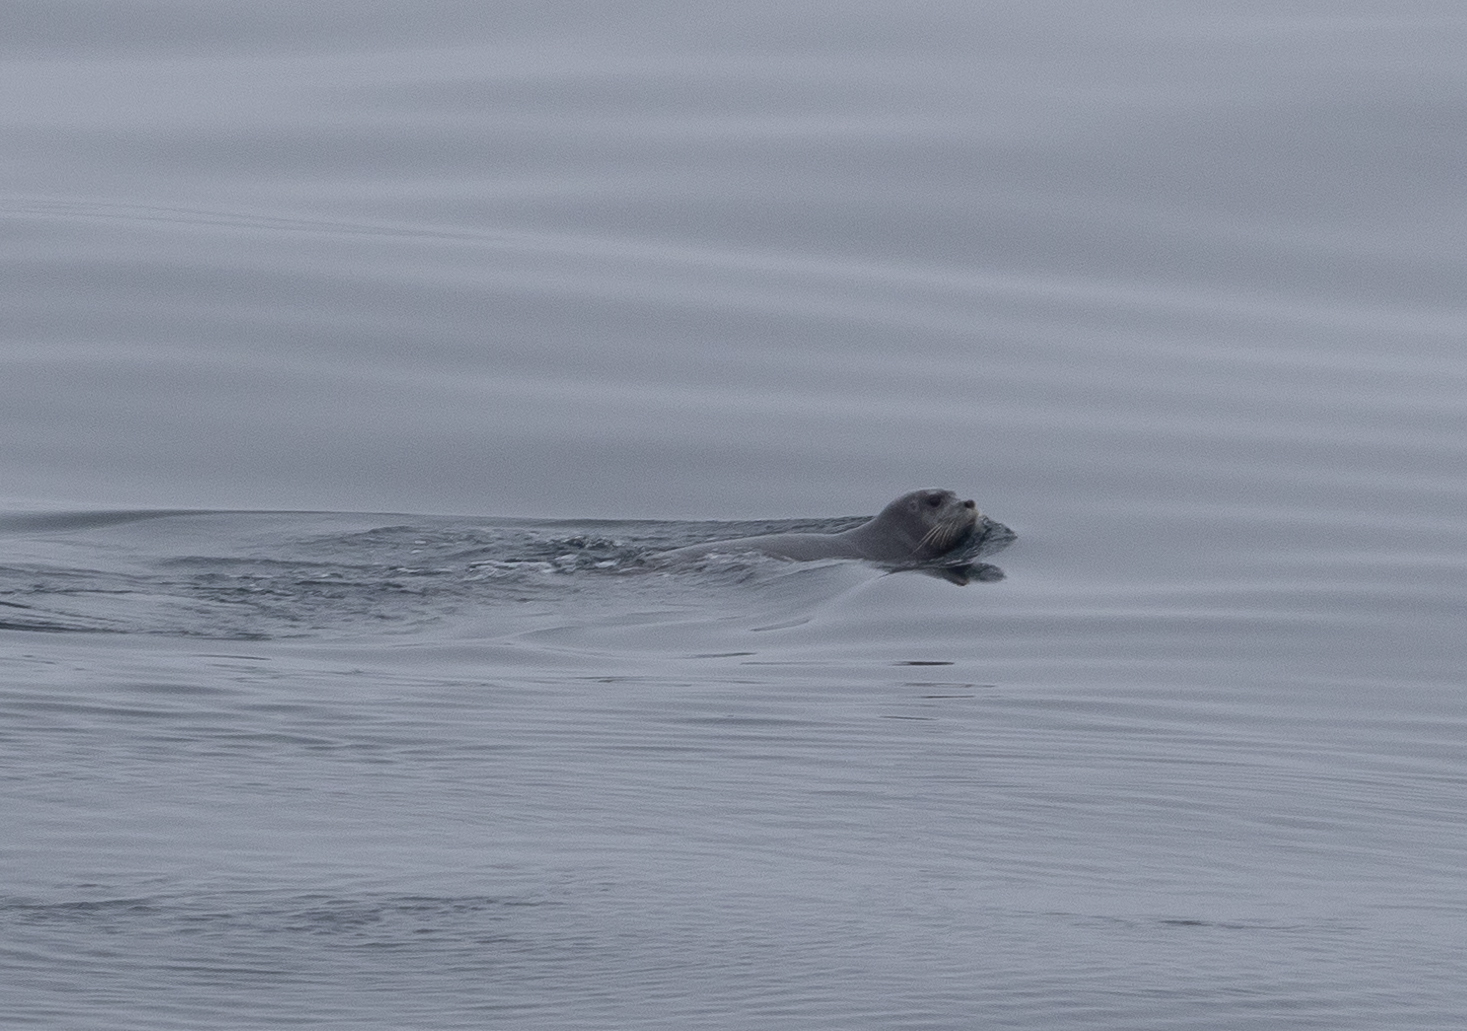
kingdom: Animalia
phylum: Chordata
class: Mammalia
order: Carnivora
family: Phocidae
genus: Erignathus
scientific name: Erignathus barbatus
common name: Bearded seal
